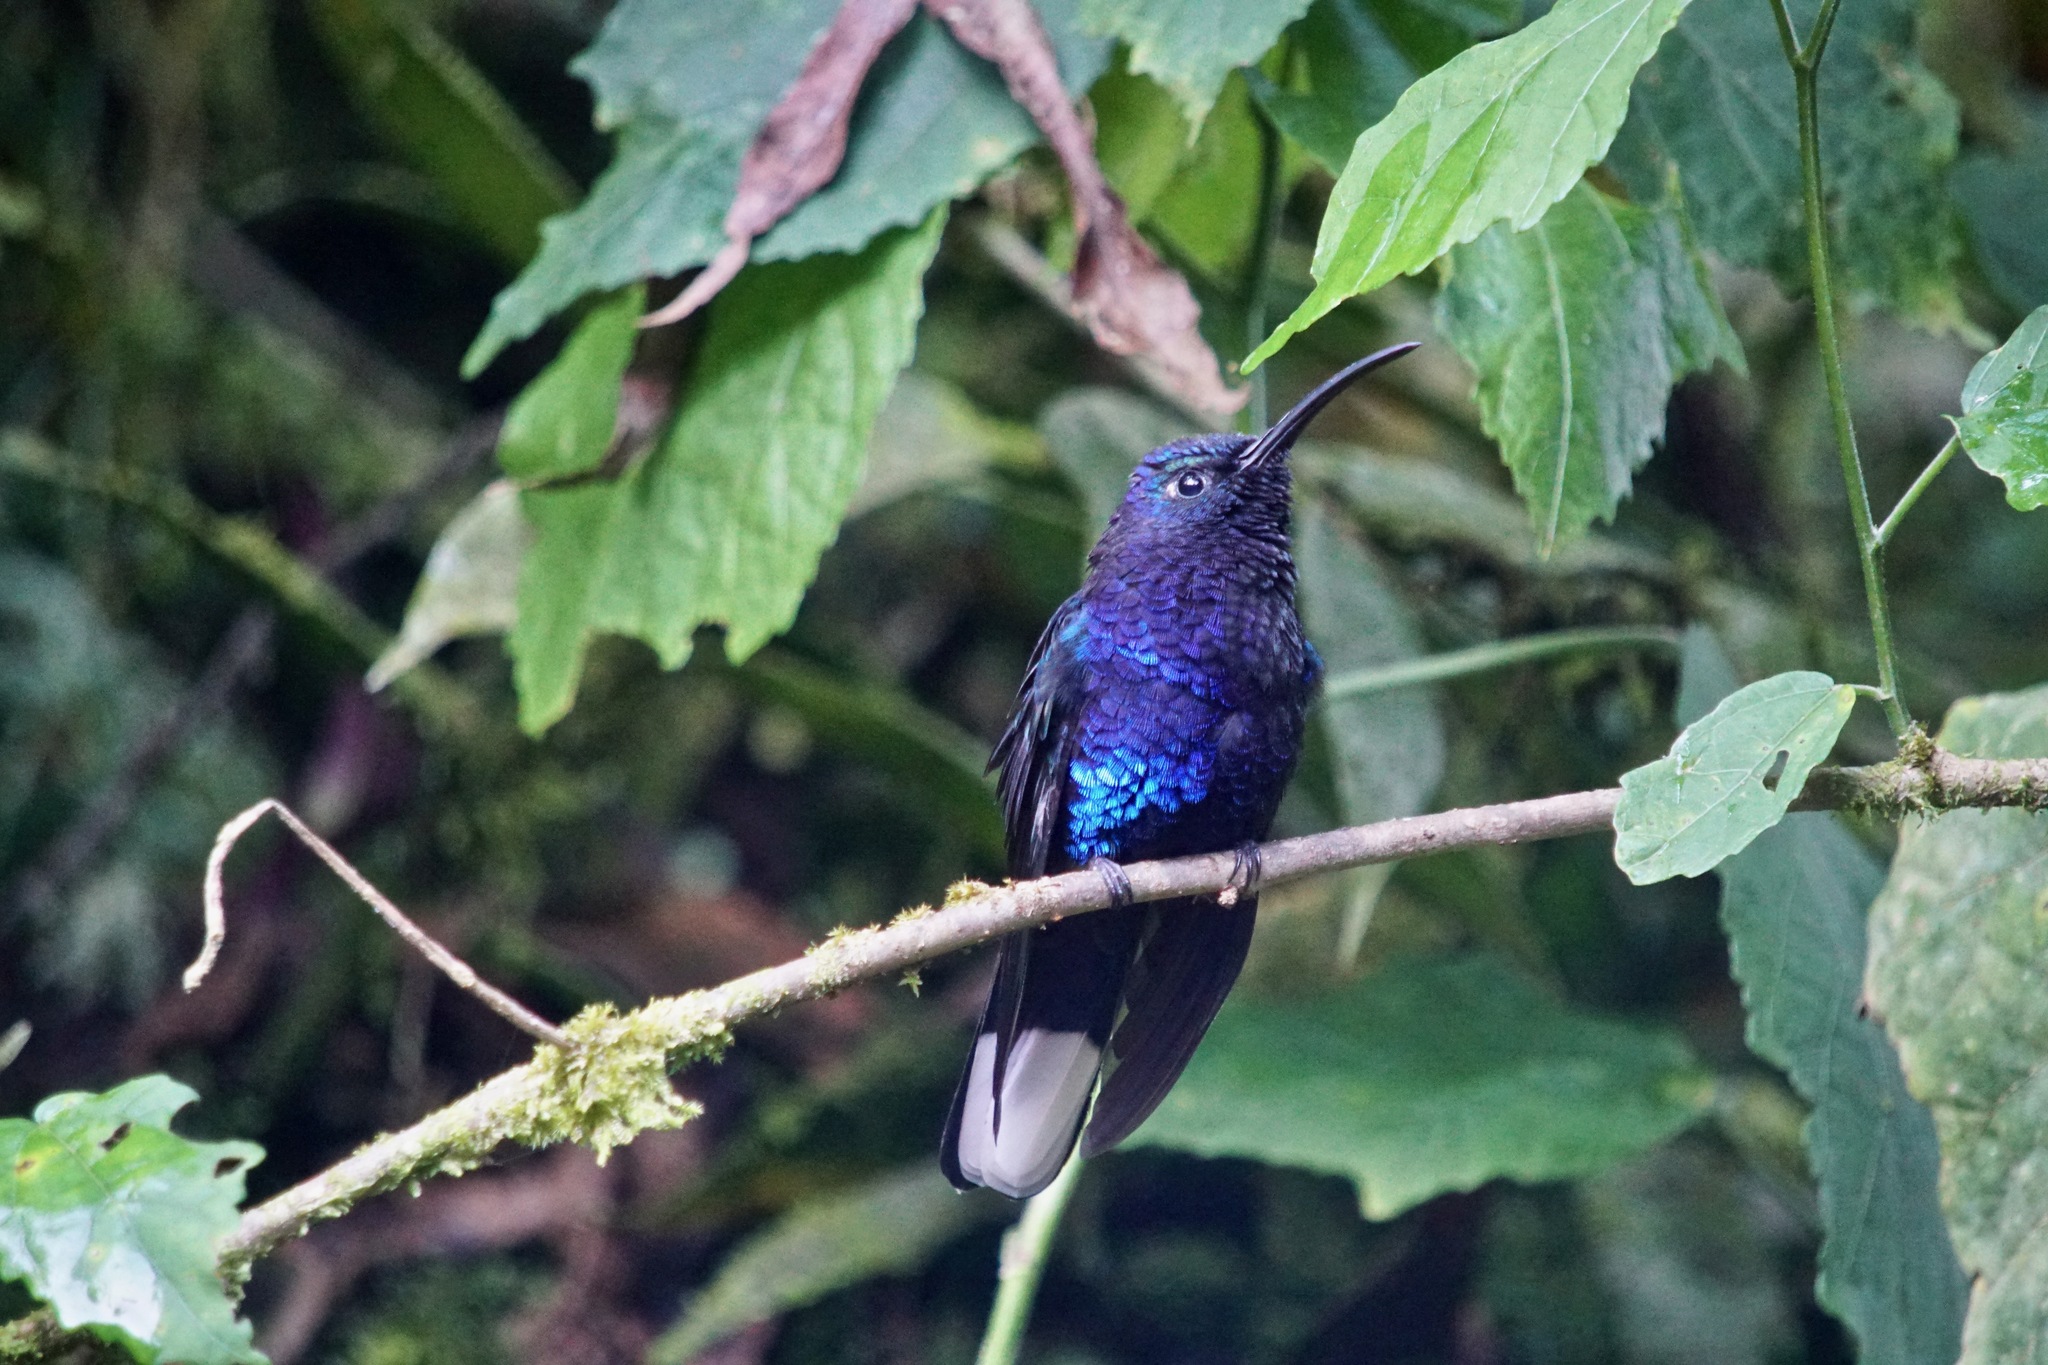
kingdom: Animalia
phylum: Chordata
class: Aves
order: Apodiformes
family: Trochilidae
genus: Campylopterus
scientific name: Campylopterus hemileucurus
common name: Violet sabrewing
